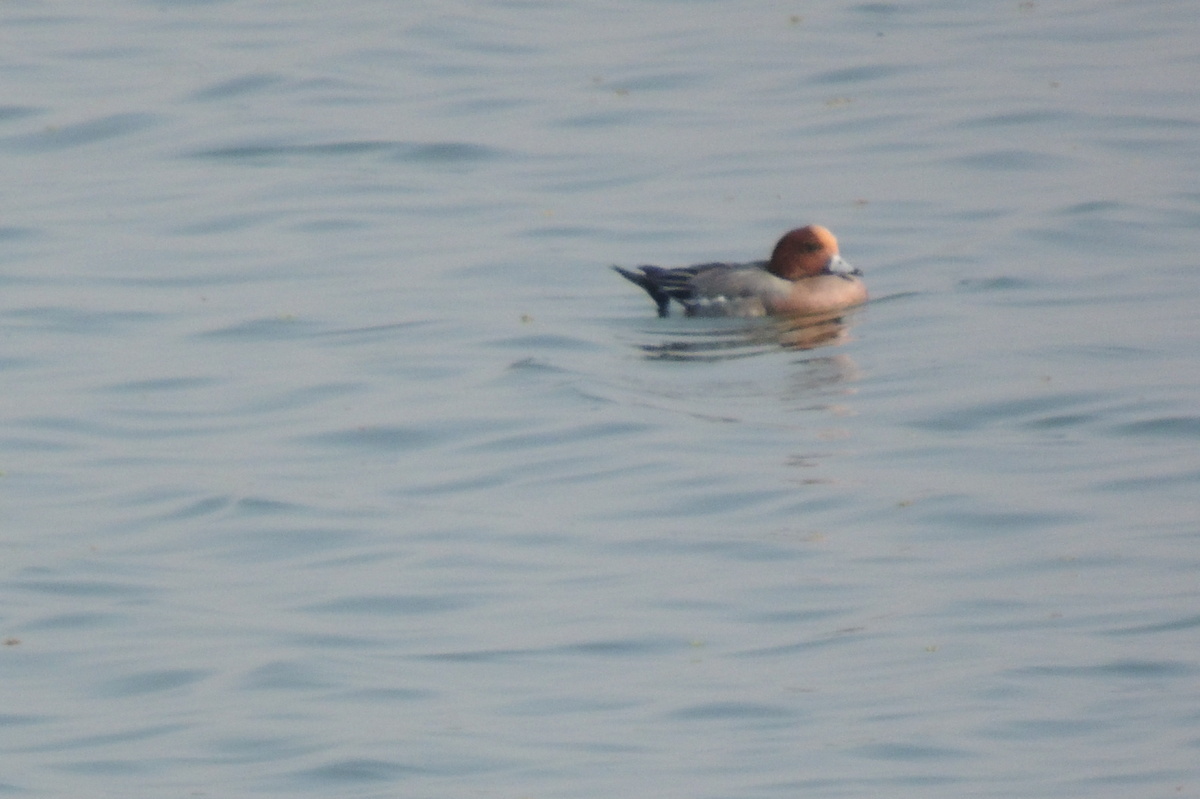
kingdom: Animalia
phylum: Chordata
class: Aves
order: Anseriformes
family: Anatidae
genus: Mareca
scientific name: Mareca penelope
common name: Eurasian wigeon
